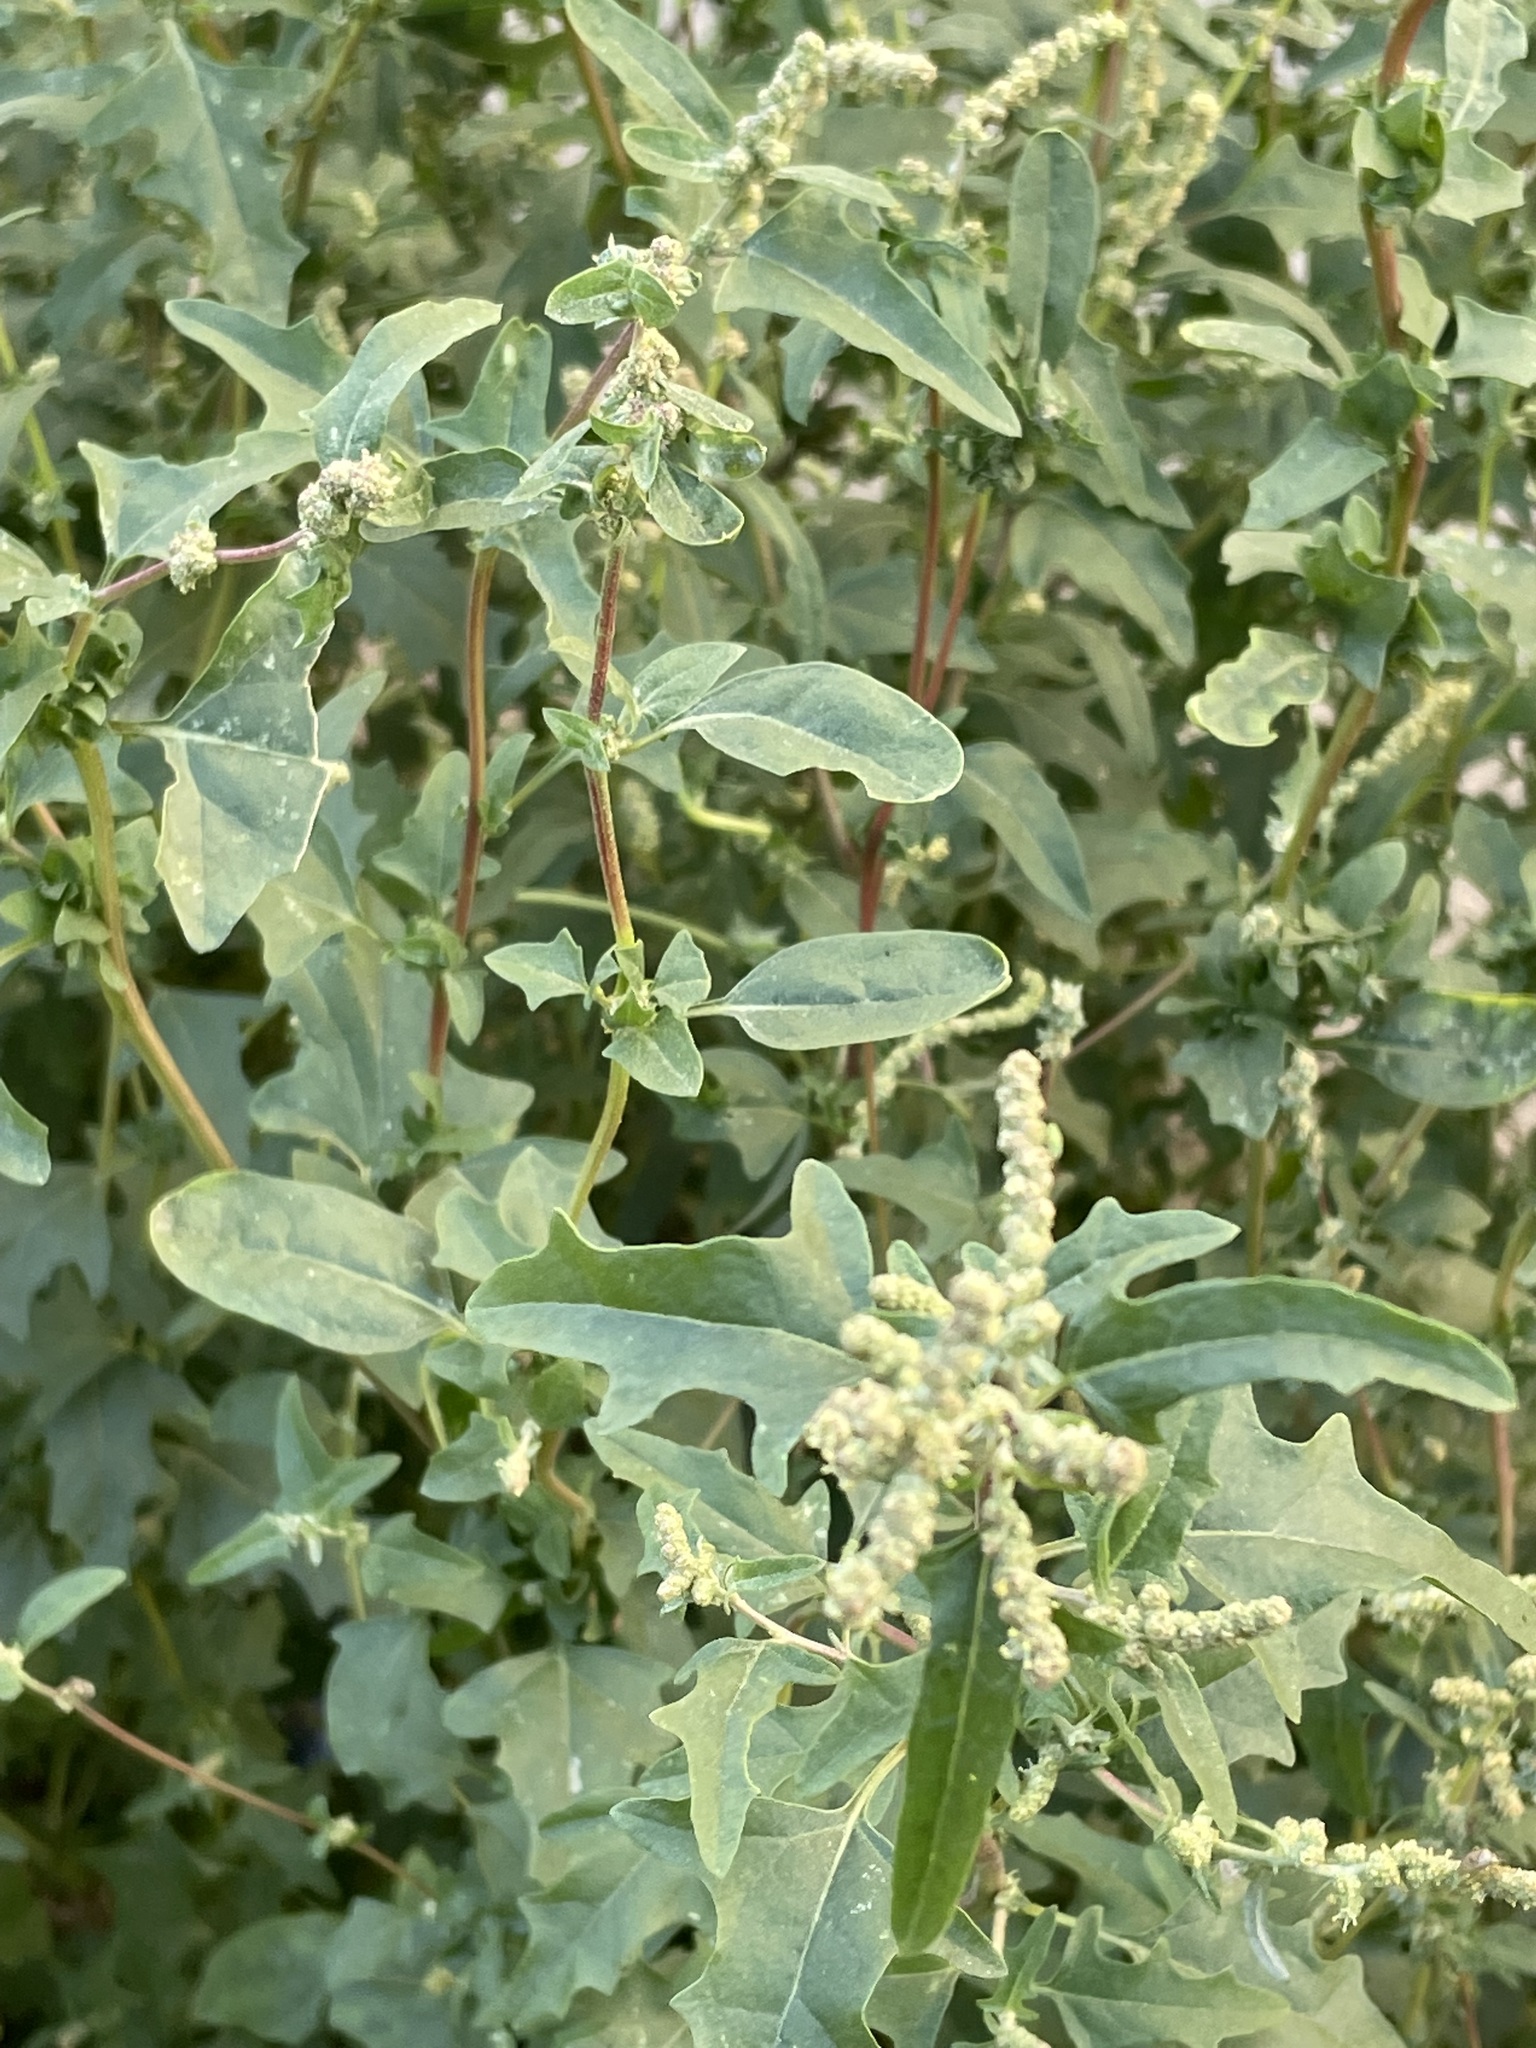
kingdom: Plantae
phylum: Tracheophyta
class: Magnoliopsida
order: Caryophyllales
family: Amaranthaceae
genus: Atriplex
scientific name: Atriplex tatarica
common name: Tatarian orache
